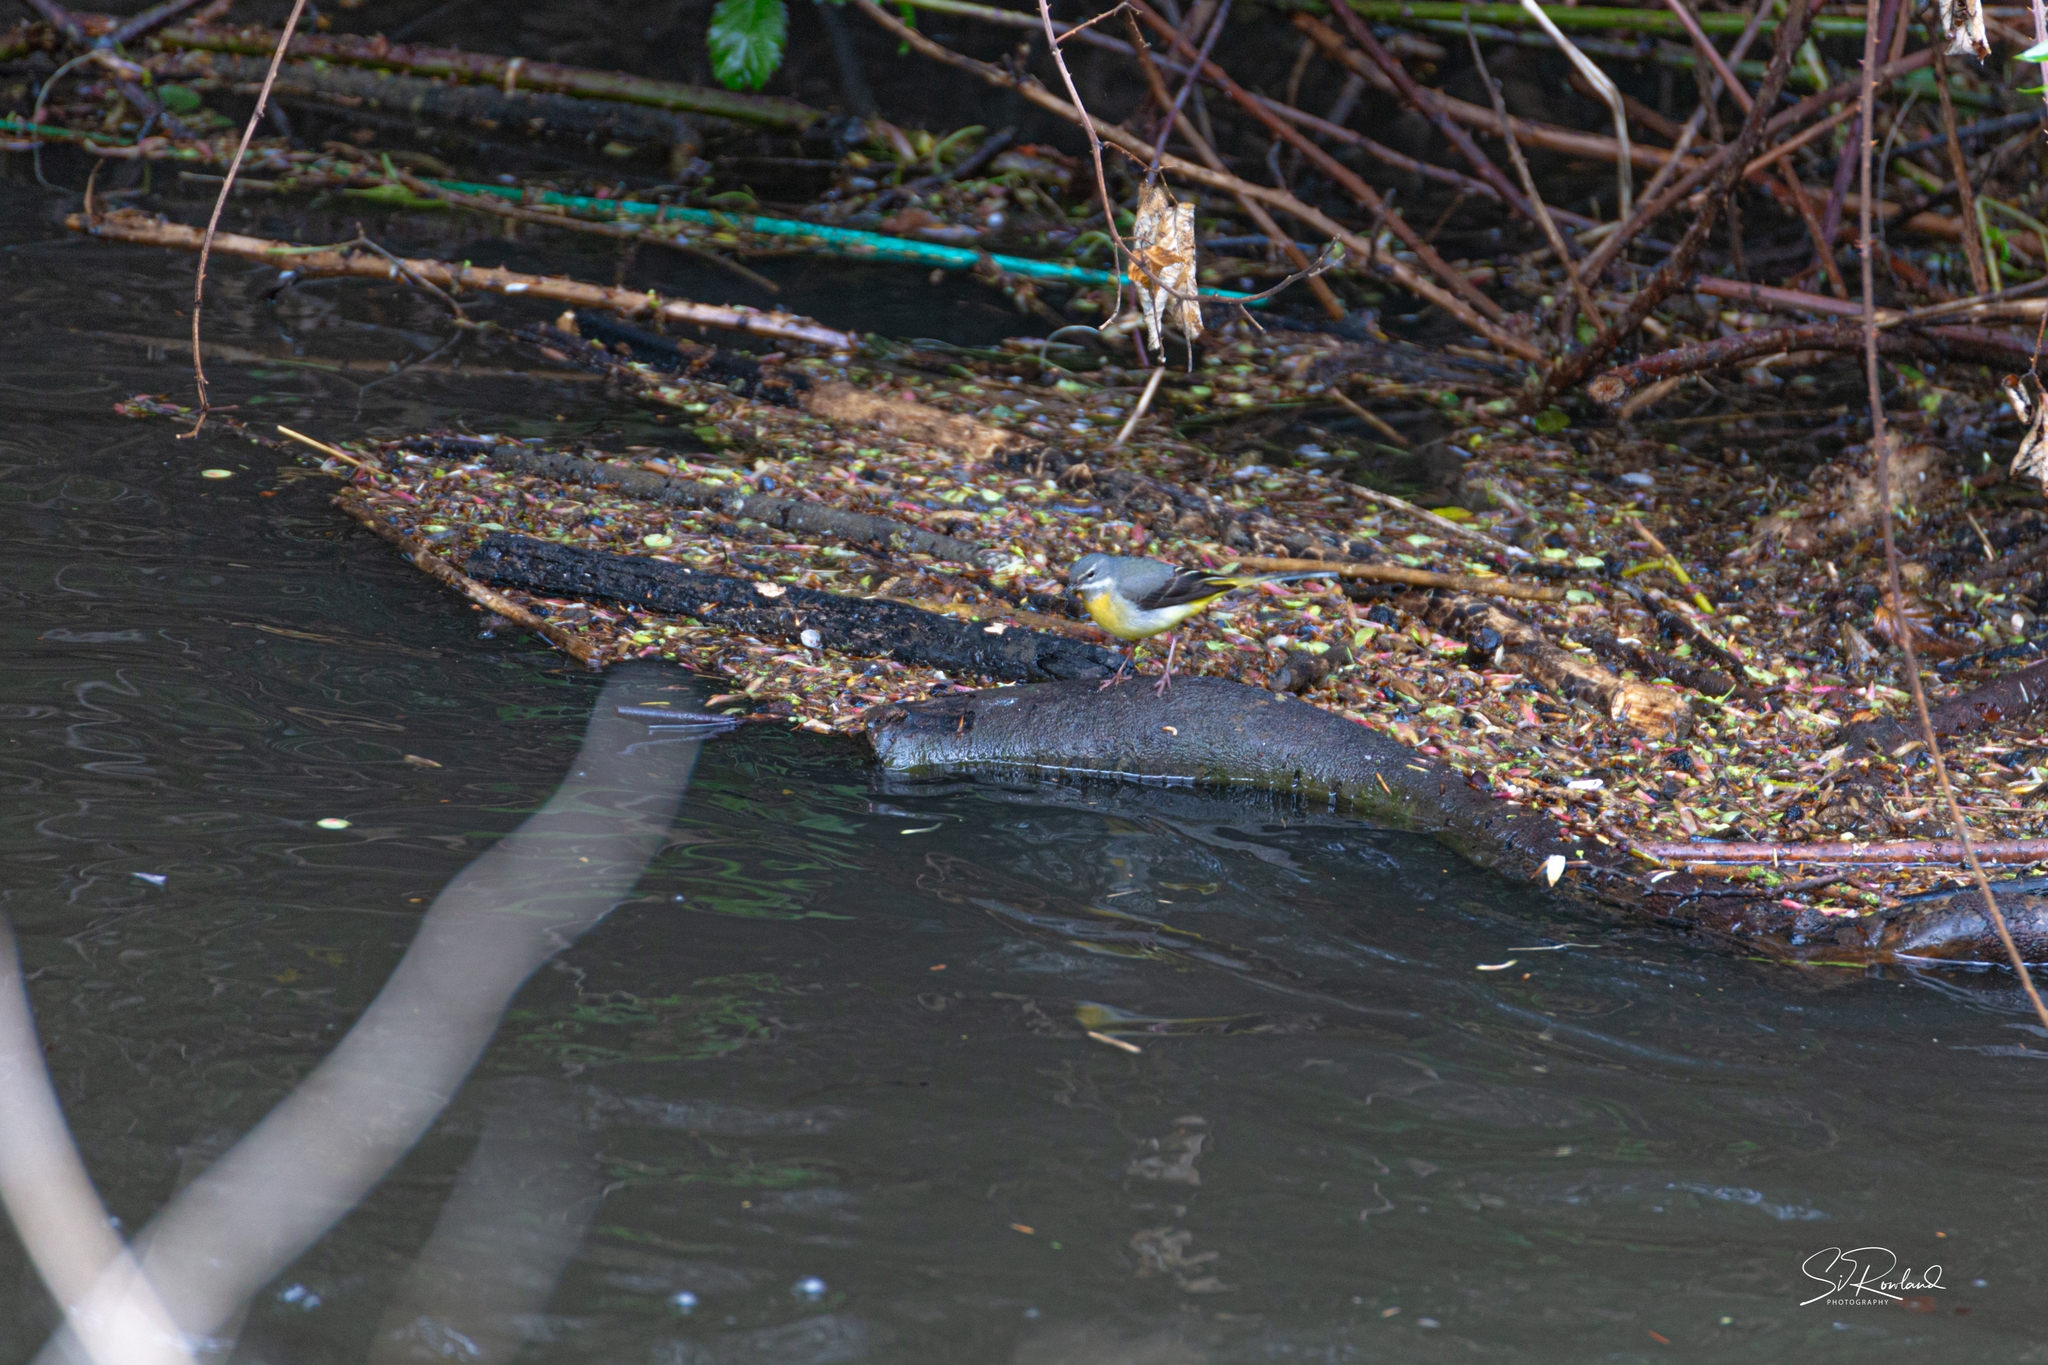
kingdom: Animalia
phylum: Chordata
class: Aves
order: Passeriformes
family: Motacillidae
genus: Motacilla
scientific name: Motacilla cinerea
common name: Grey wagtail
